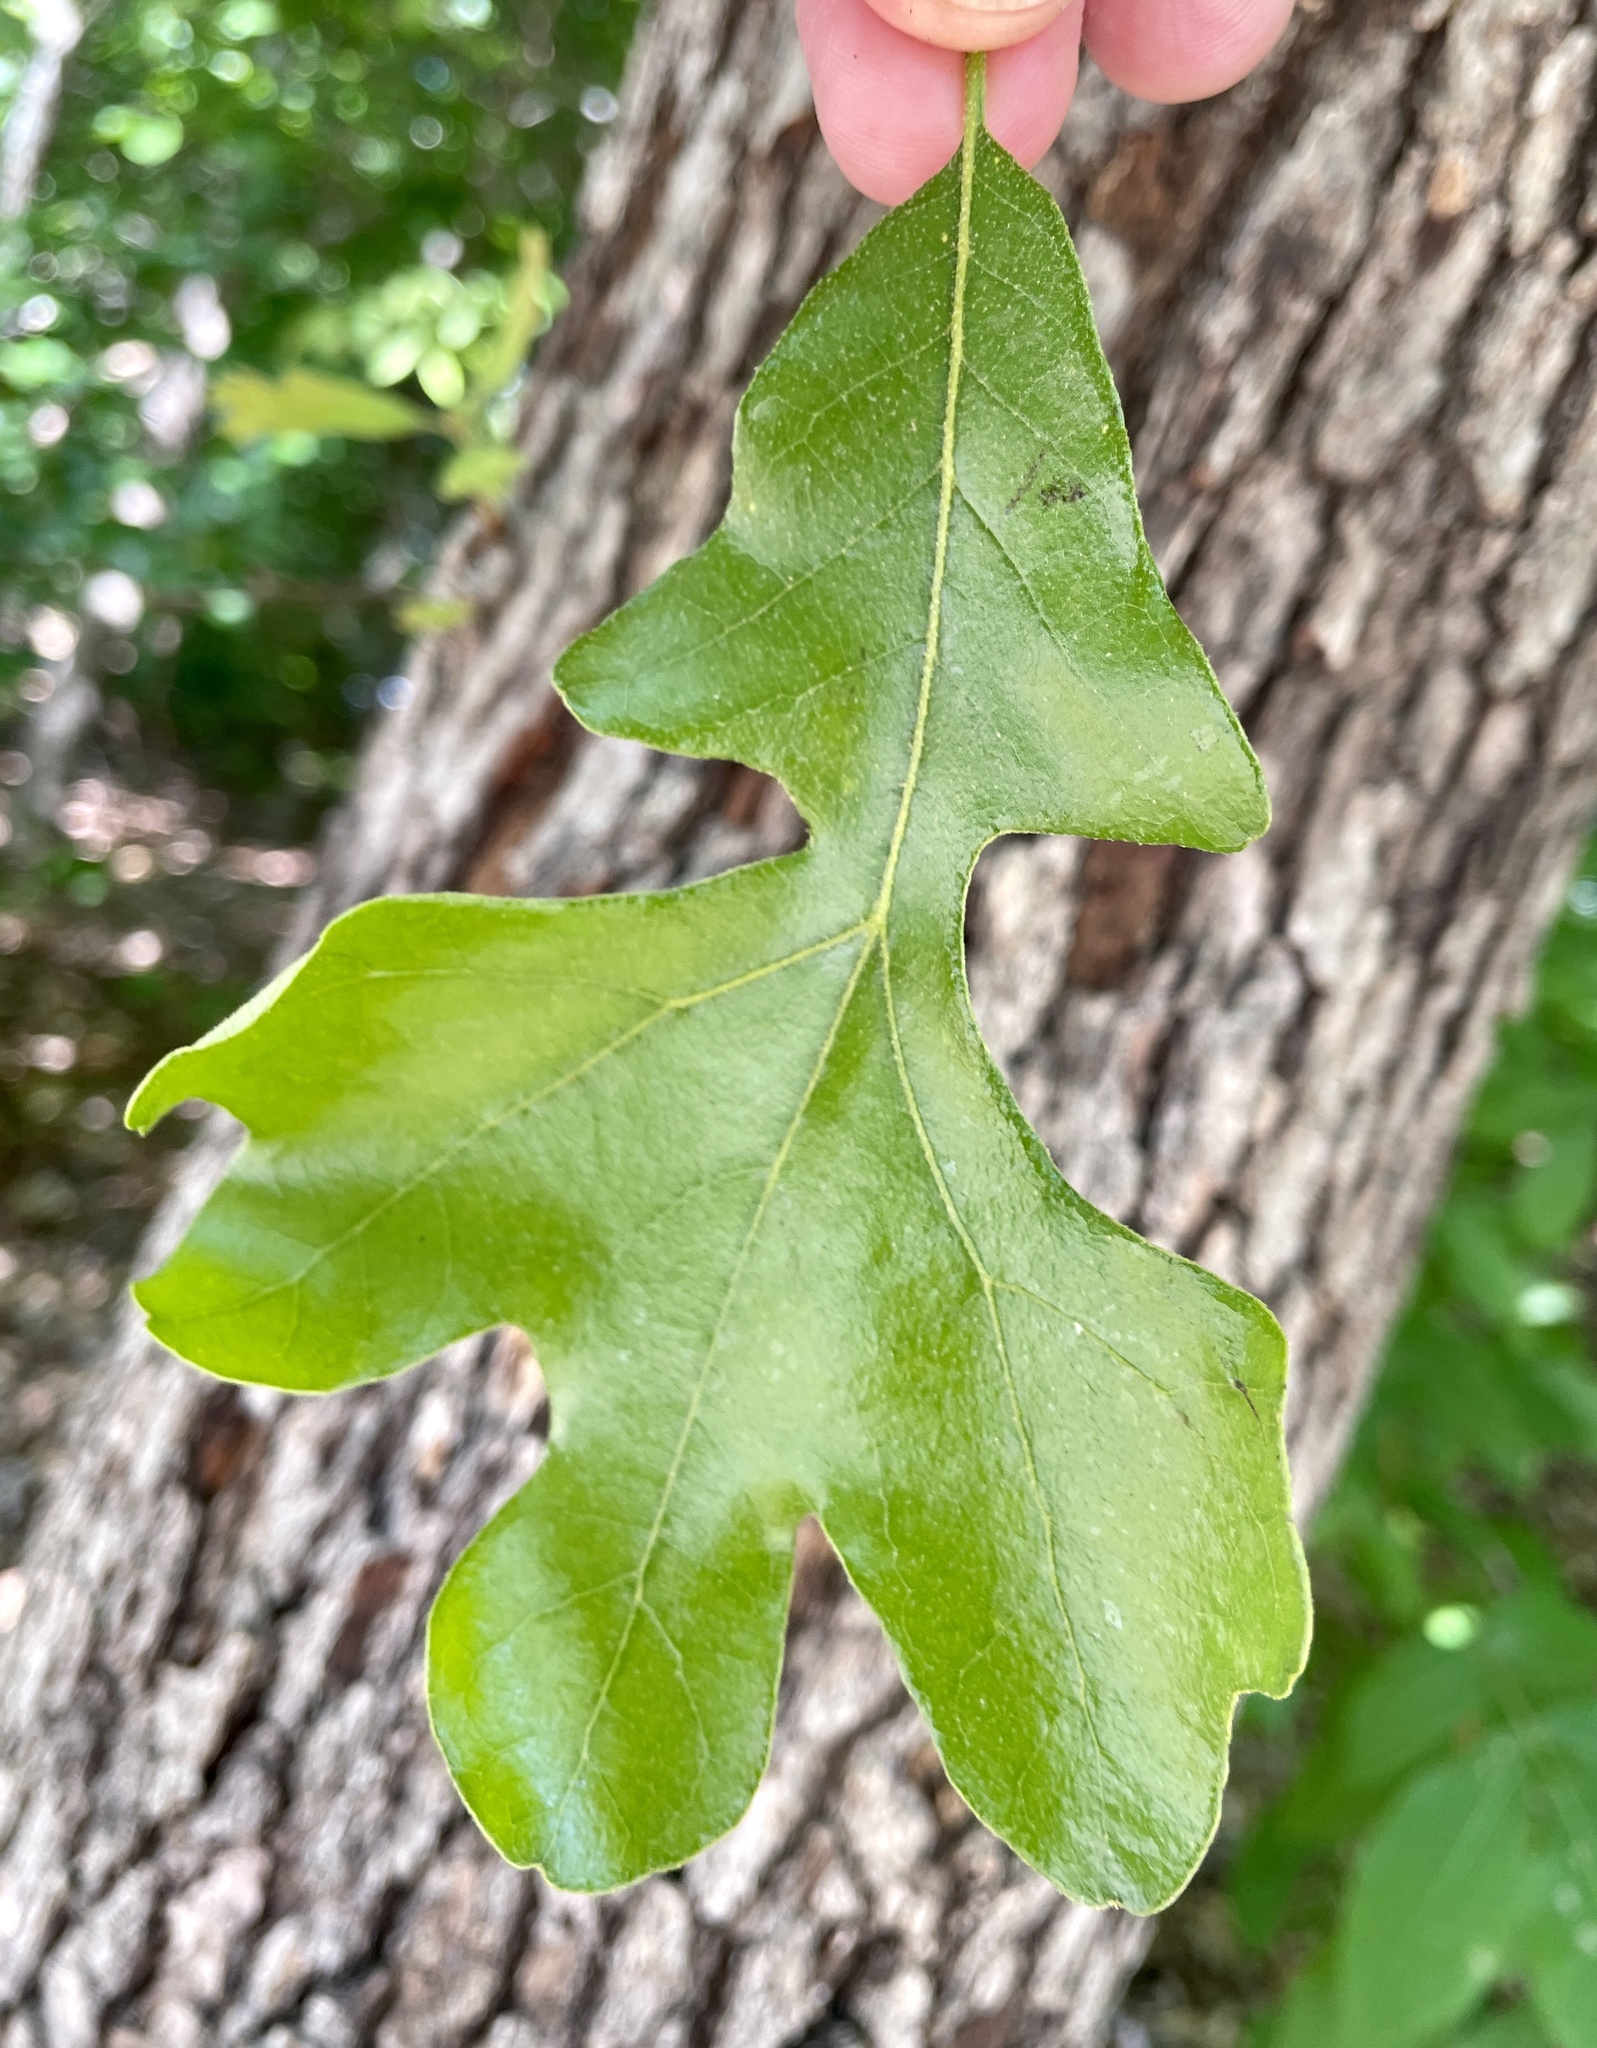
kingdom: Plantae
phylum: Tracheophyta
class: Magnoliopsida
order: Fagales
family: Fagaceae
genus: Quercus
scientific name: Quercus stellata
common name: Post oak
